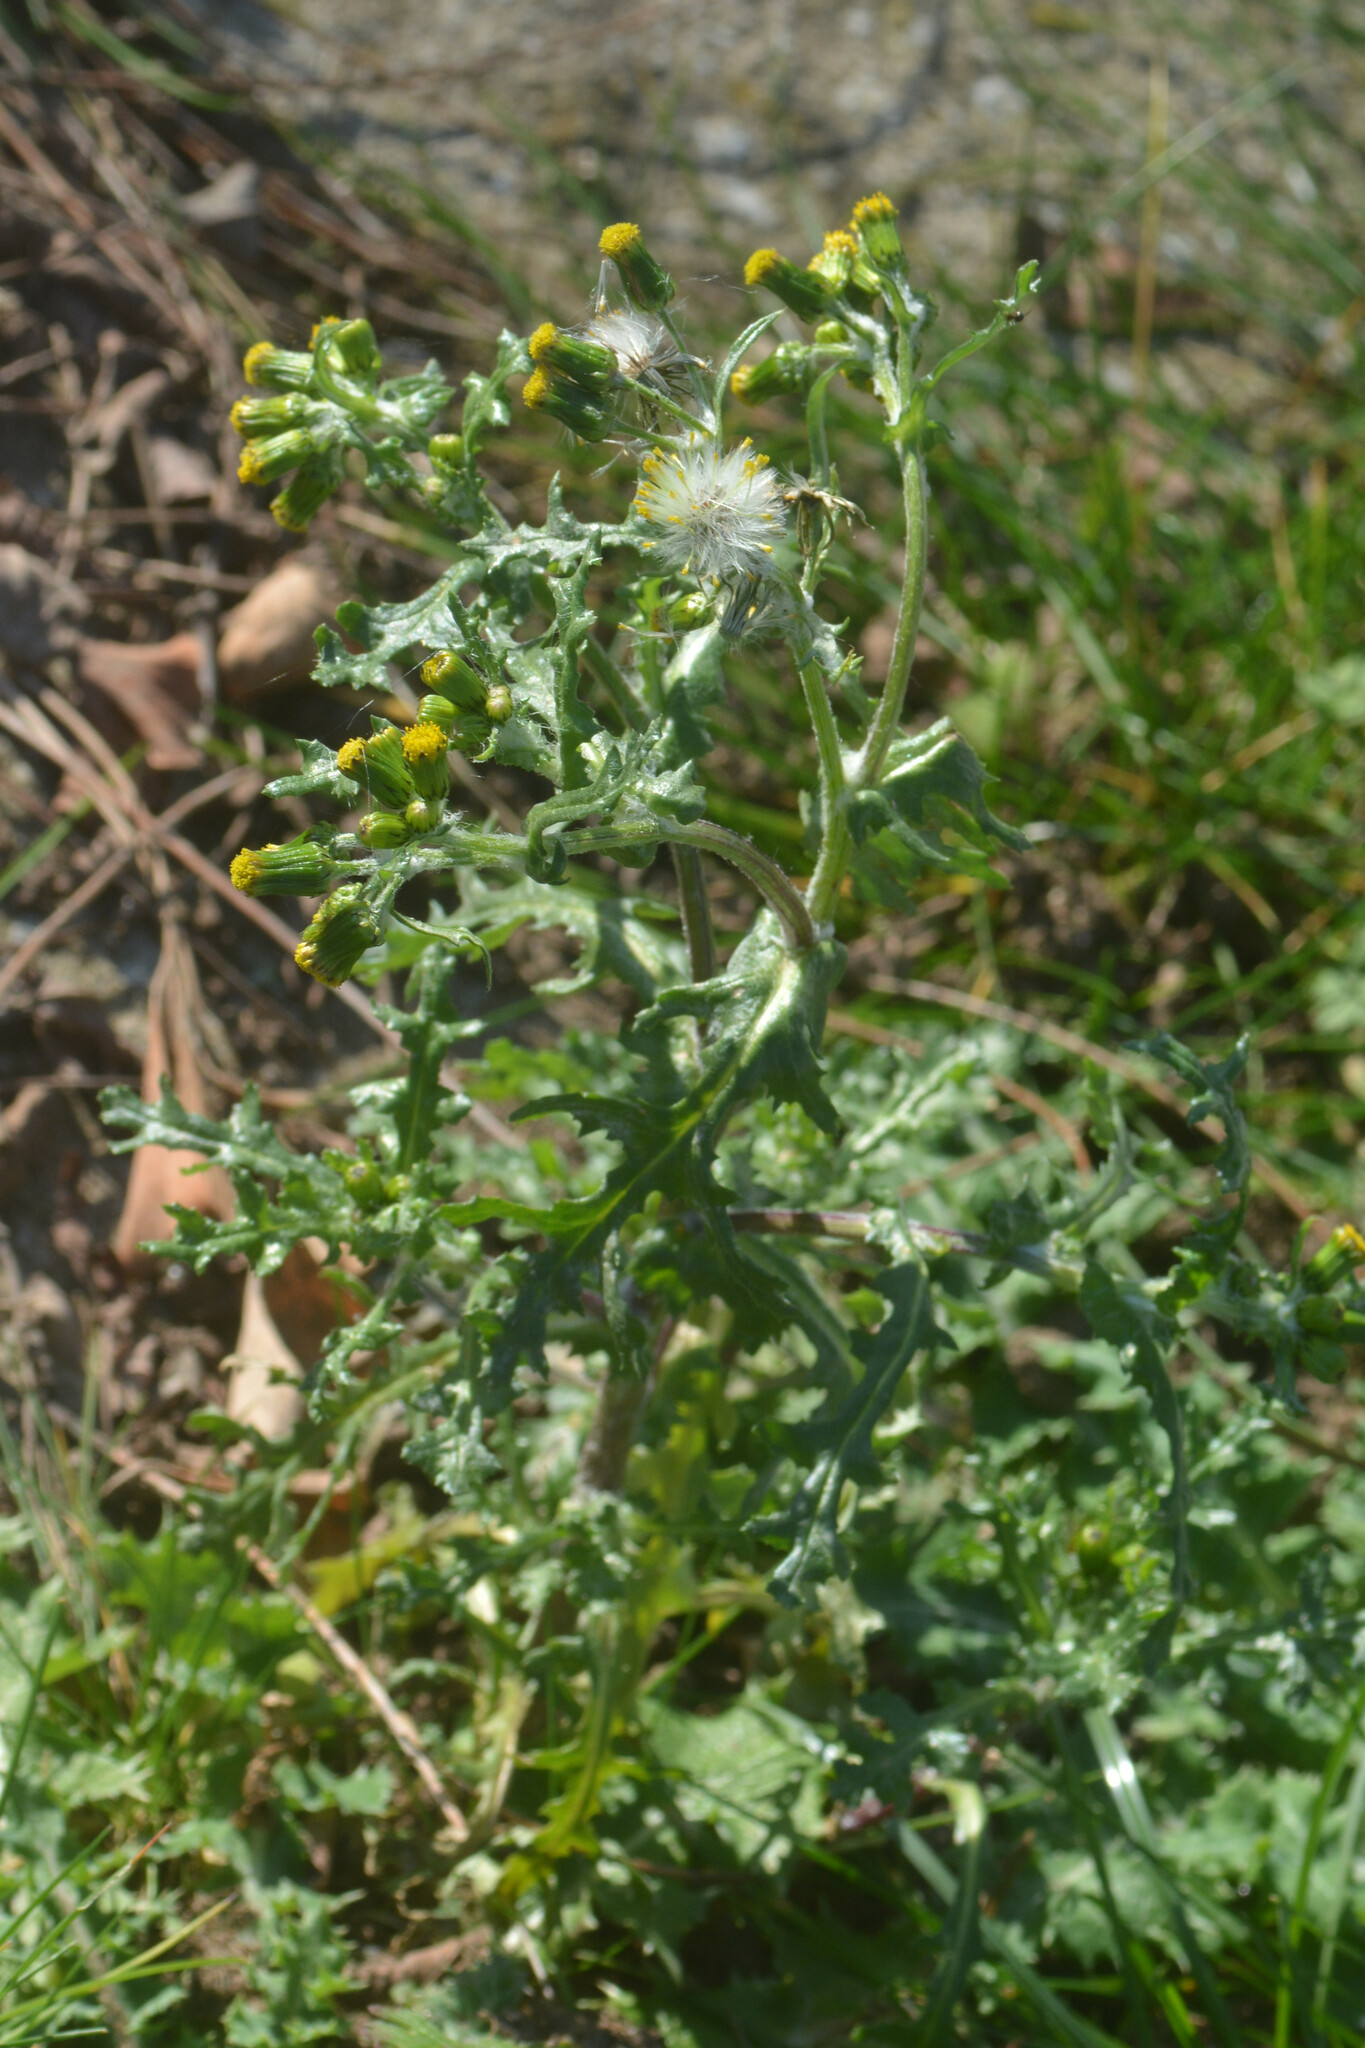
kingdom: Plantae
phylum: Tracheophyta
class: Magnoliopsida
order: Asterales
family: Asteraceae
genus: Senecio
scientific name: Senecio vulgaris
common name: Old-man-in-the-spring
